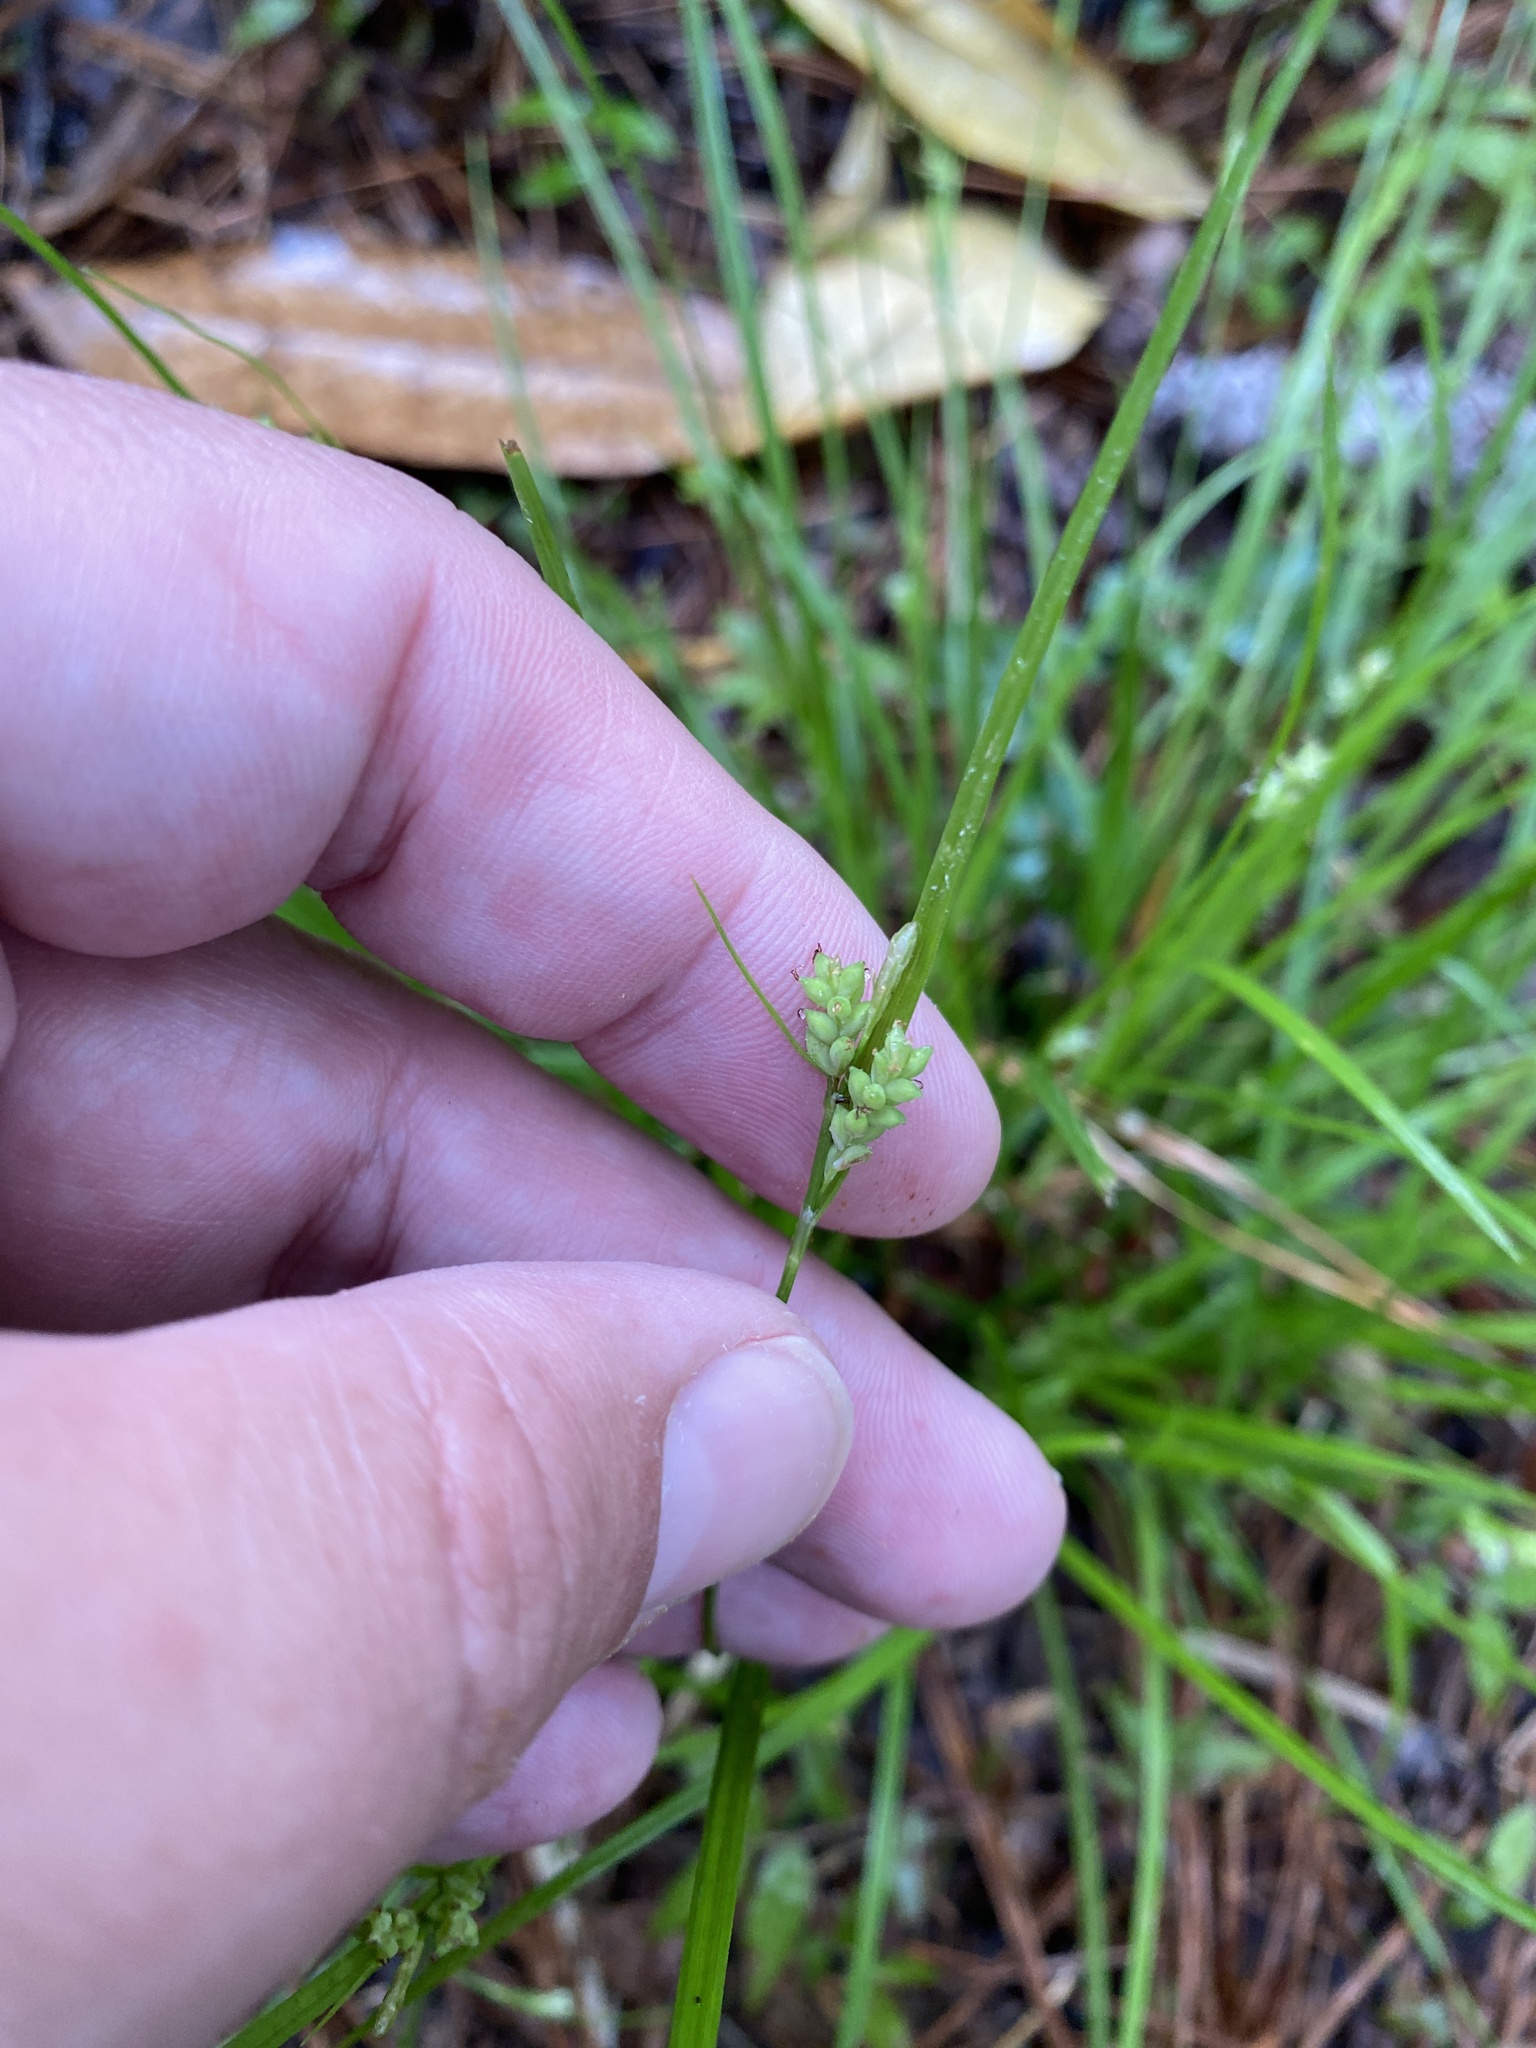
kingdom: Plantae
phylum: Tracheophyta
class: Liliopsida
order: Poales
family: Cyperaceae
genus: Carex
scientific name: Carex blanda
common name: Bland sedge
